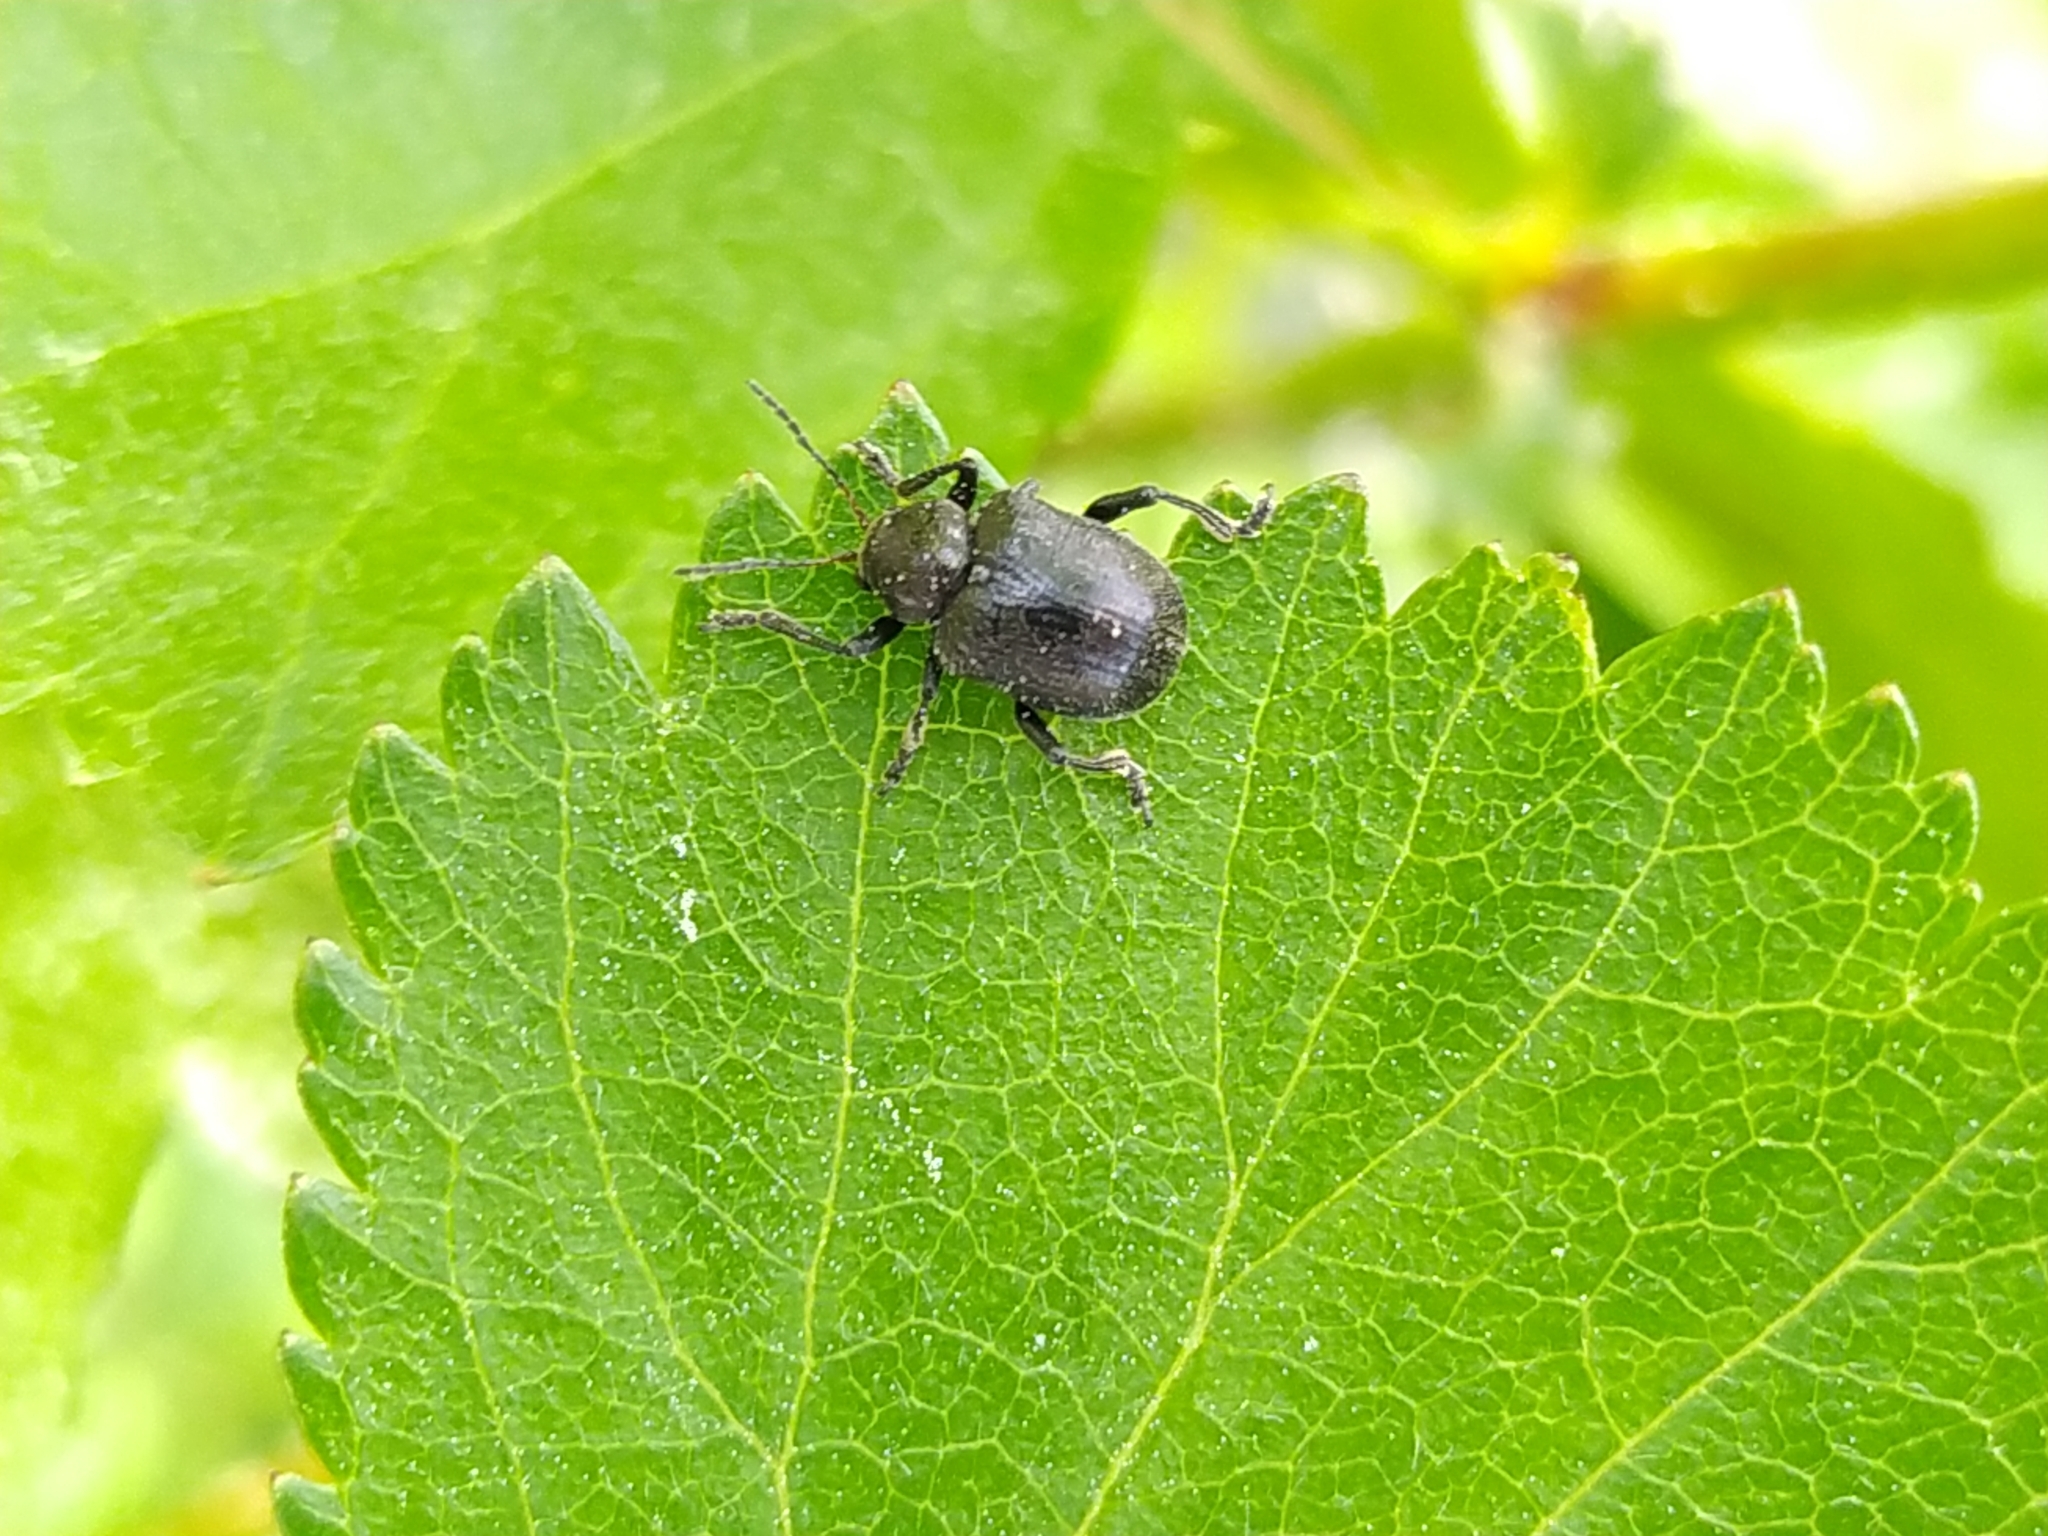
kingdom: Animalia
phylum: Arthropoda
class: Insecta
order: Coleoptera
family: Chrysomelidae
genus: Bromius
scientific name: Bromius obscurus
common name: Western grape rootworm
